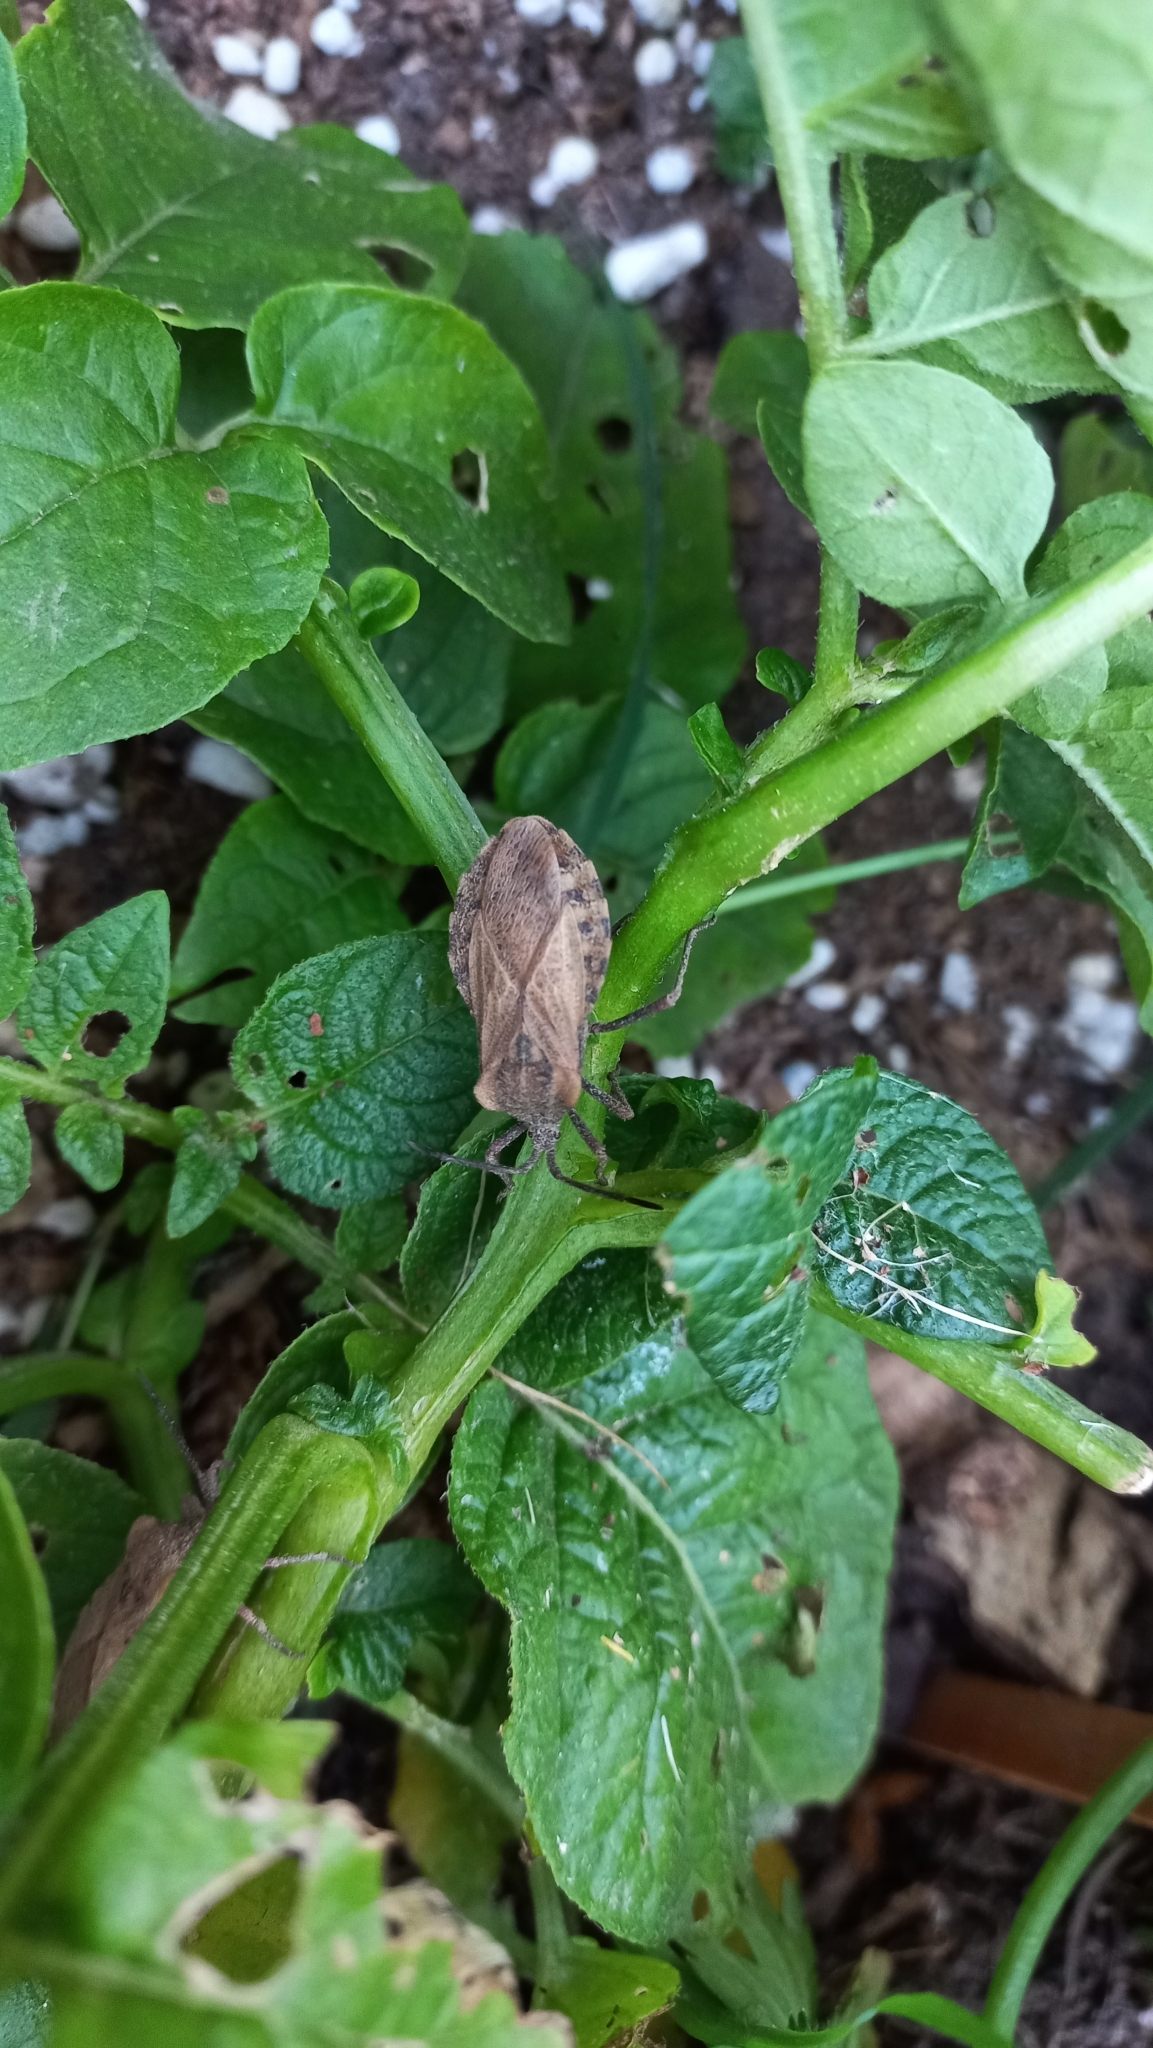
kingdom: Animalia
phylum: Arthropoda
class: Insecta
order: Hemiptera
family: Coreidae
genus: Spartocera
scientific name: Spartocera fusca
